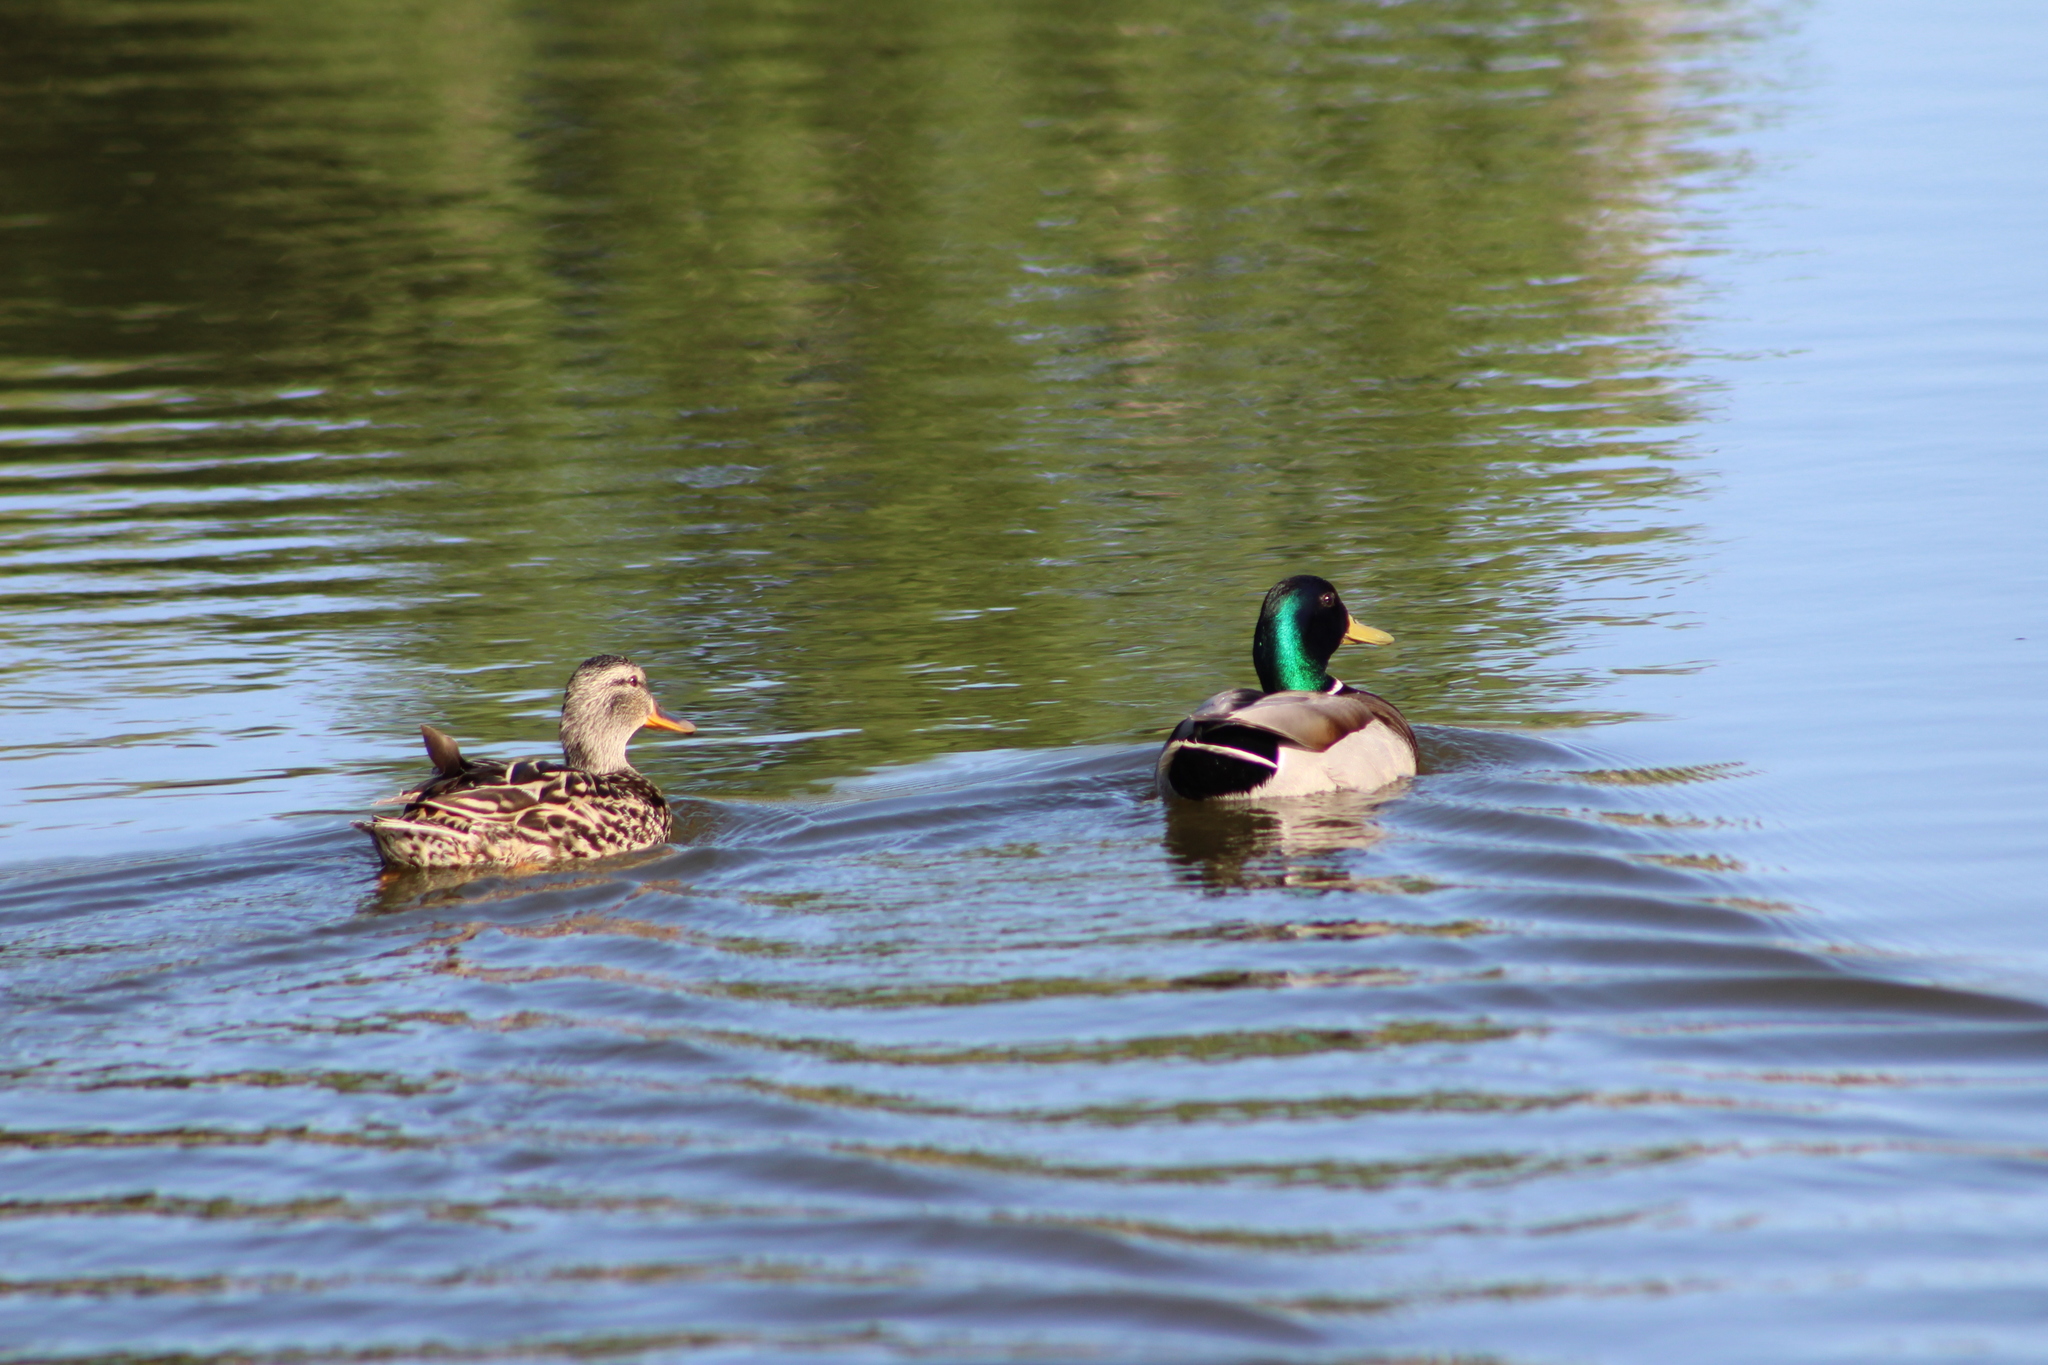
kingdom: Animalia
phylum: Chordata
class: Aves
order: Anseriformes
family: Anatidae
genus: Anas
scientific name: Anas platyrhynchos
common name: Mallard
